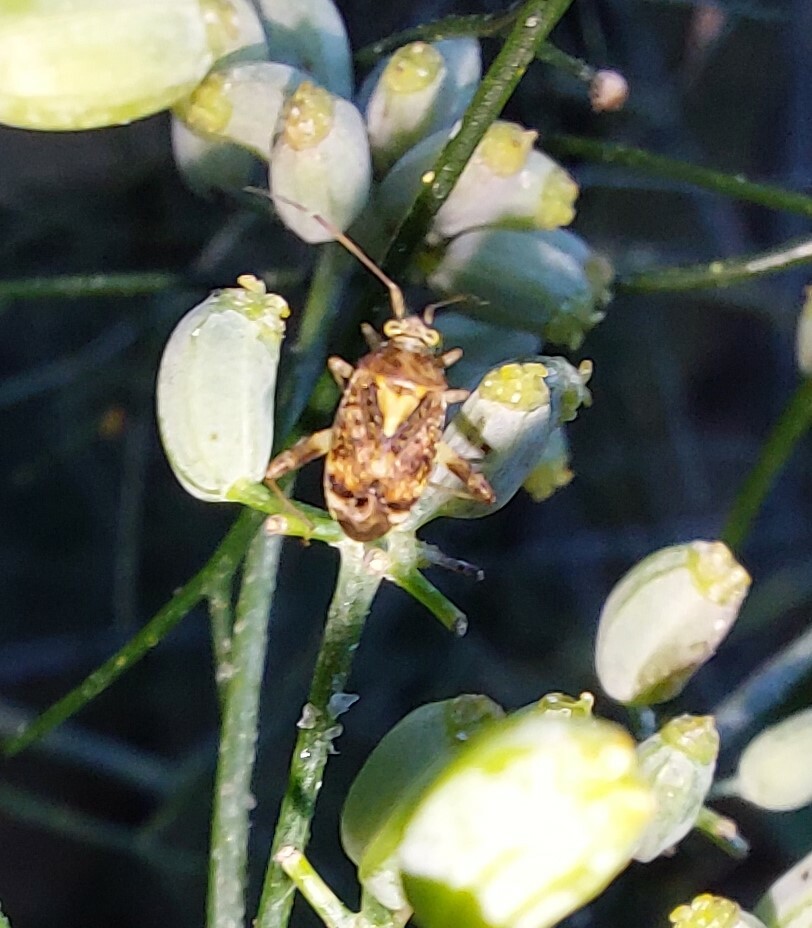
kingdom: Animalia
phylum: Arthropoda
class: Insecta
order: Hemiptera
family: Miridae
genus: Sidnia
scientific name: Sidnia kinbergi
